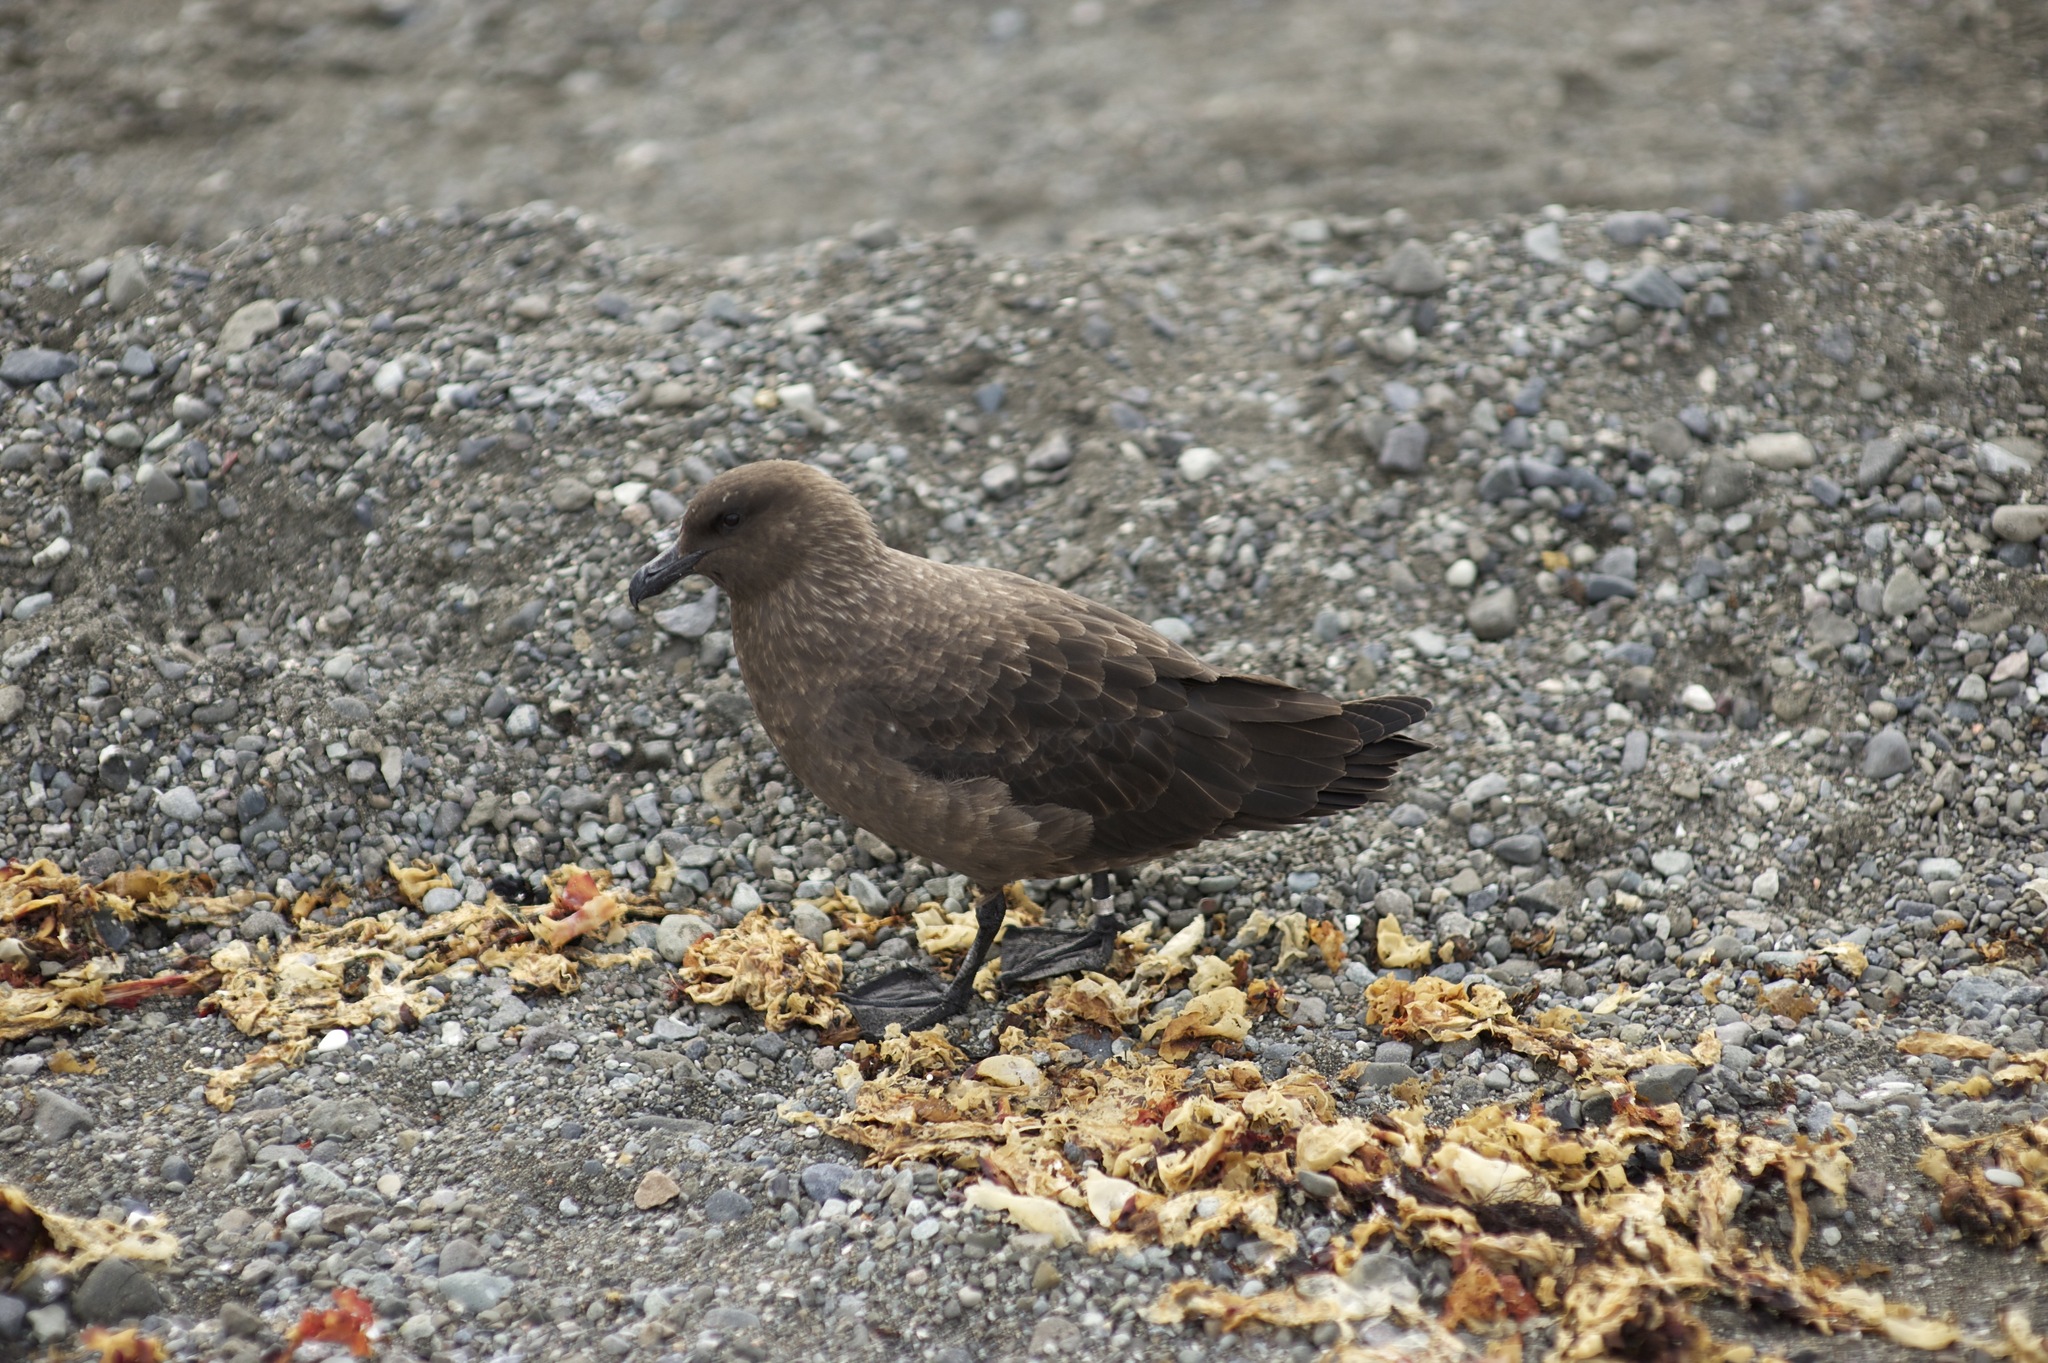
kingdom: Animalia
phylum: Chordata
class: Aves
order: Charadriiformes
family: Stercorariidae
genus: Stercorarius
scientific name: Stercorarius maccormicki
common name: South polar skua
